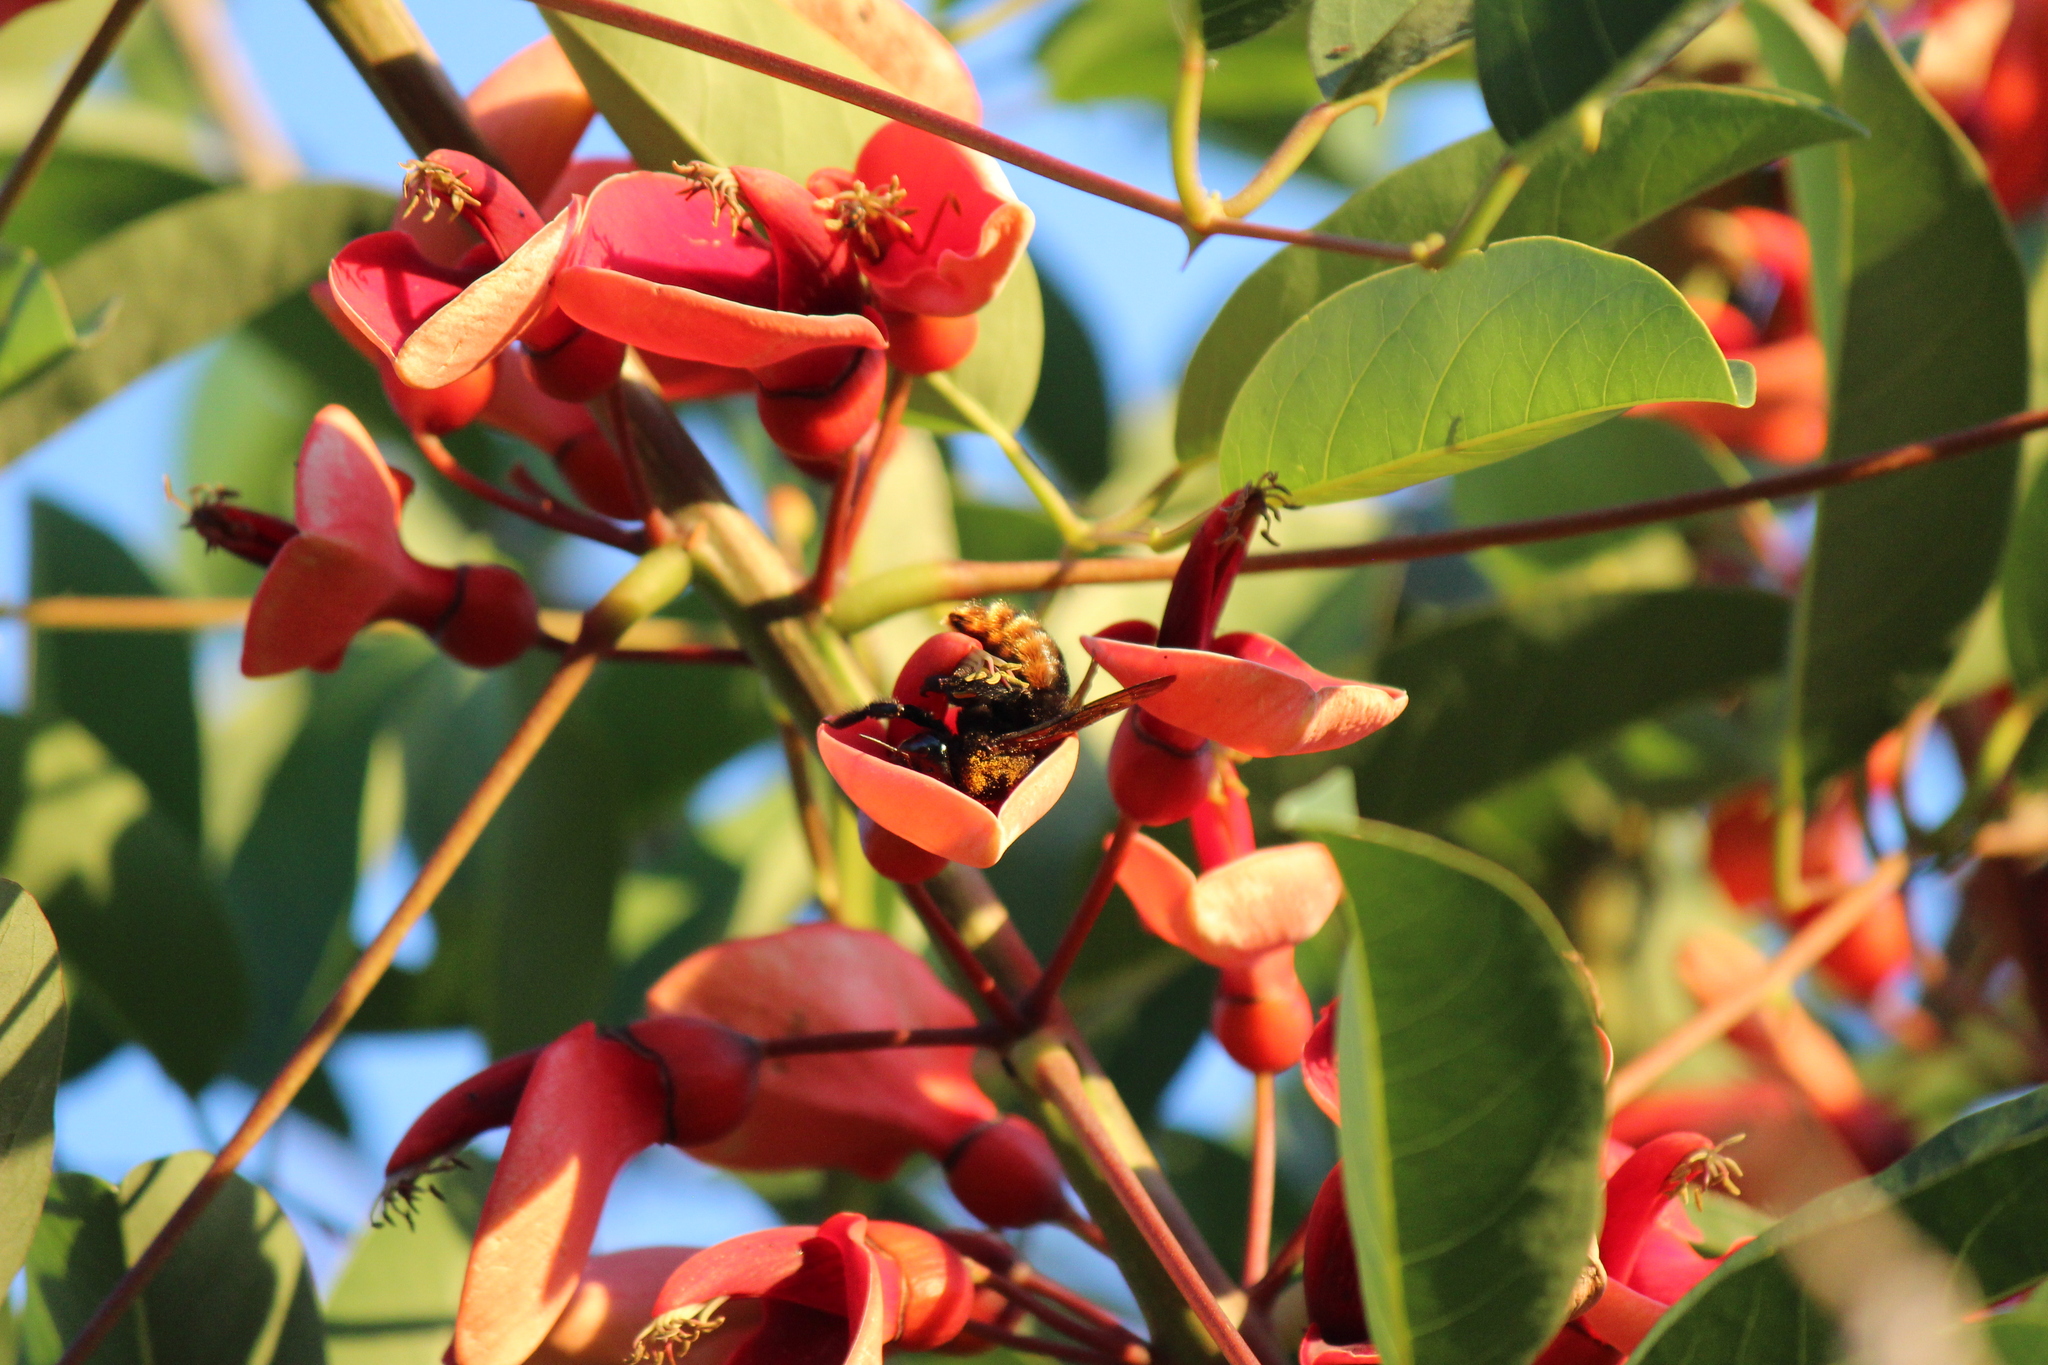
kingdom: Animalia
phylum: Arthropoda
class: Insecta
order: Hymenoptera
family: Apidae
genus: Xylocopa
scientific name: Xylocopa augusti
